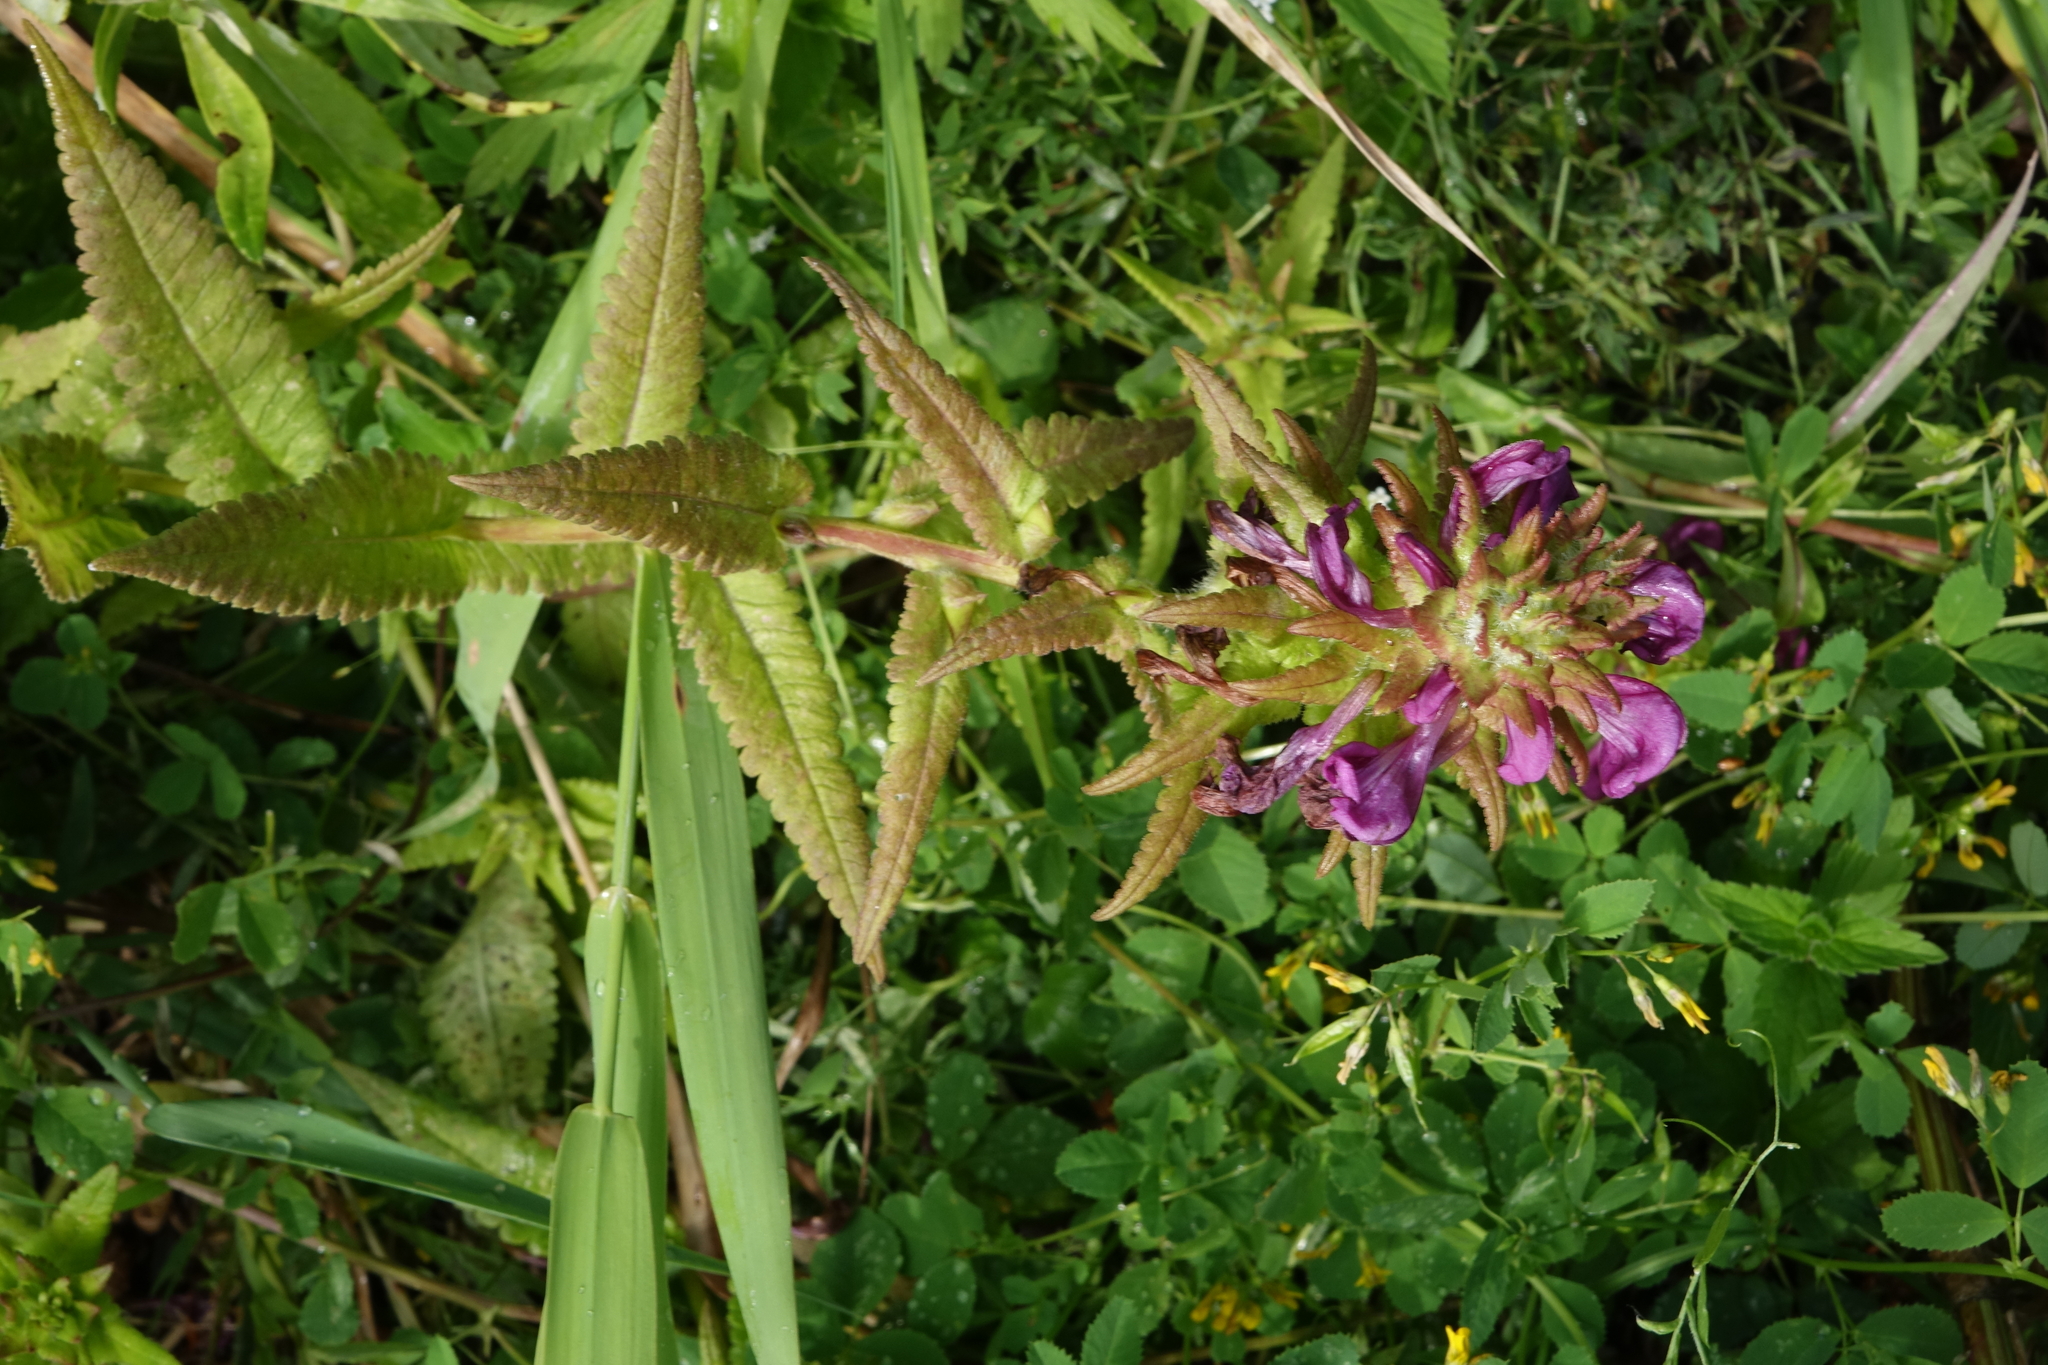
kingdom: Plantae
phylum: Tracheophyta
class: Magnoliopsida
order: Lamiales
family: Orobanchaceae
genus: Pedicularis
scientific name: Pedicularis resupinata
